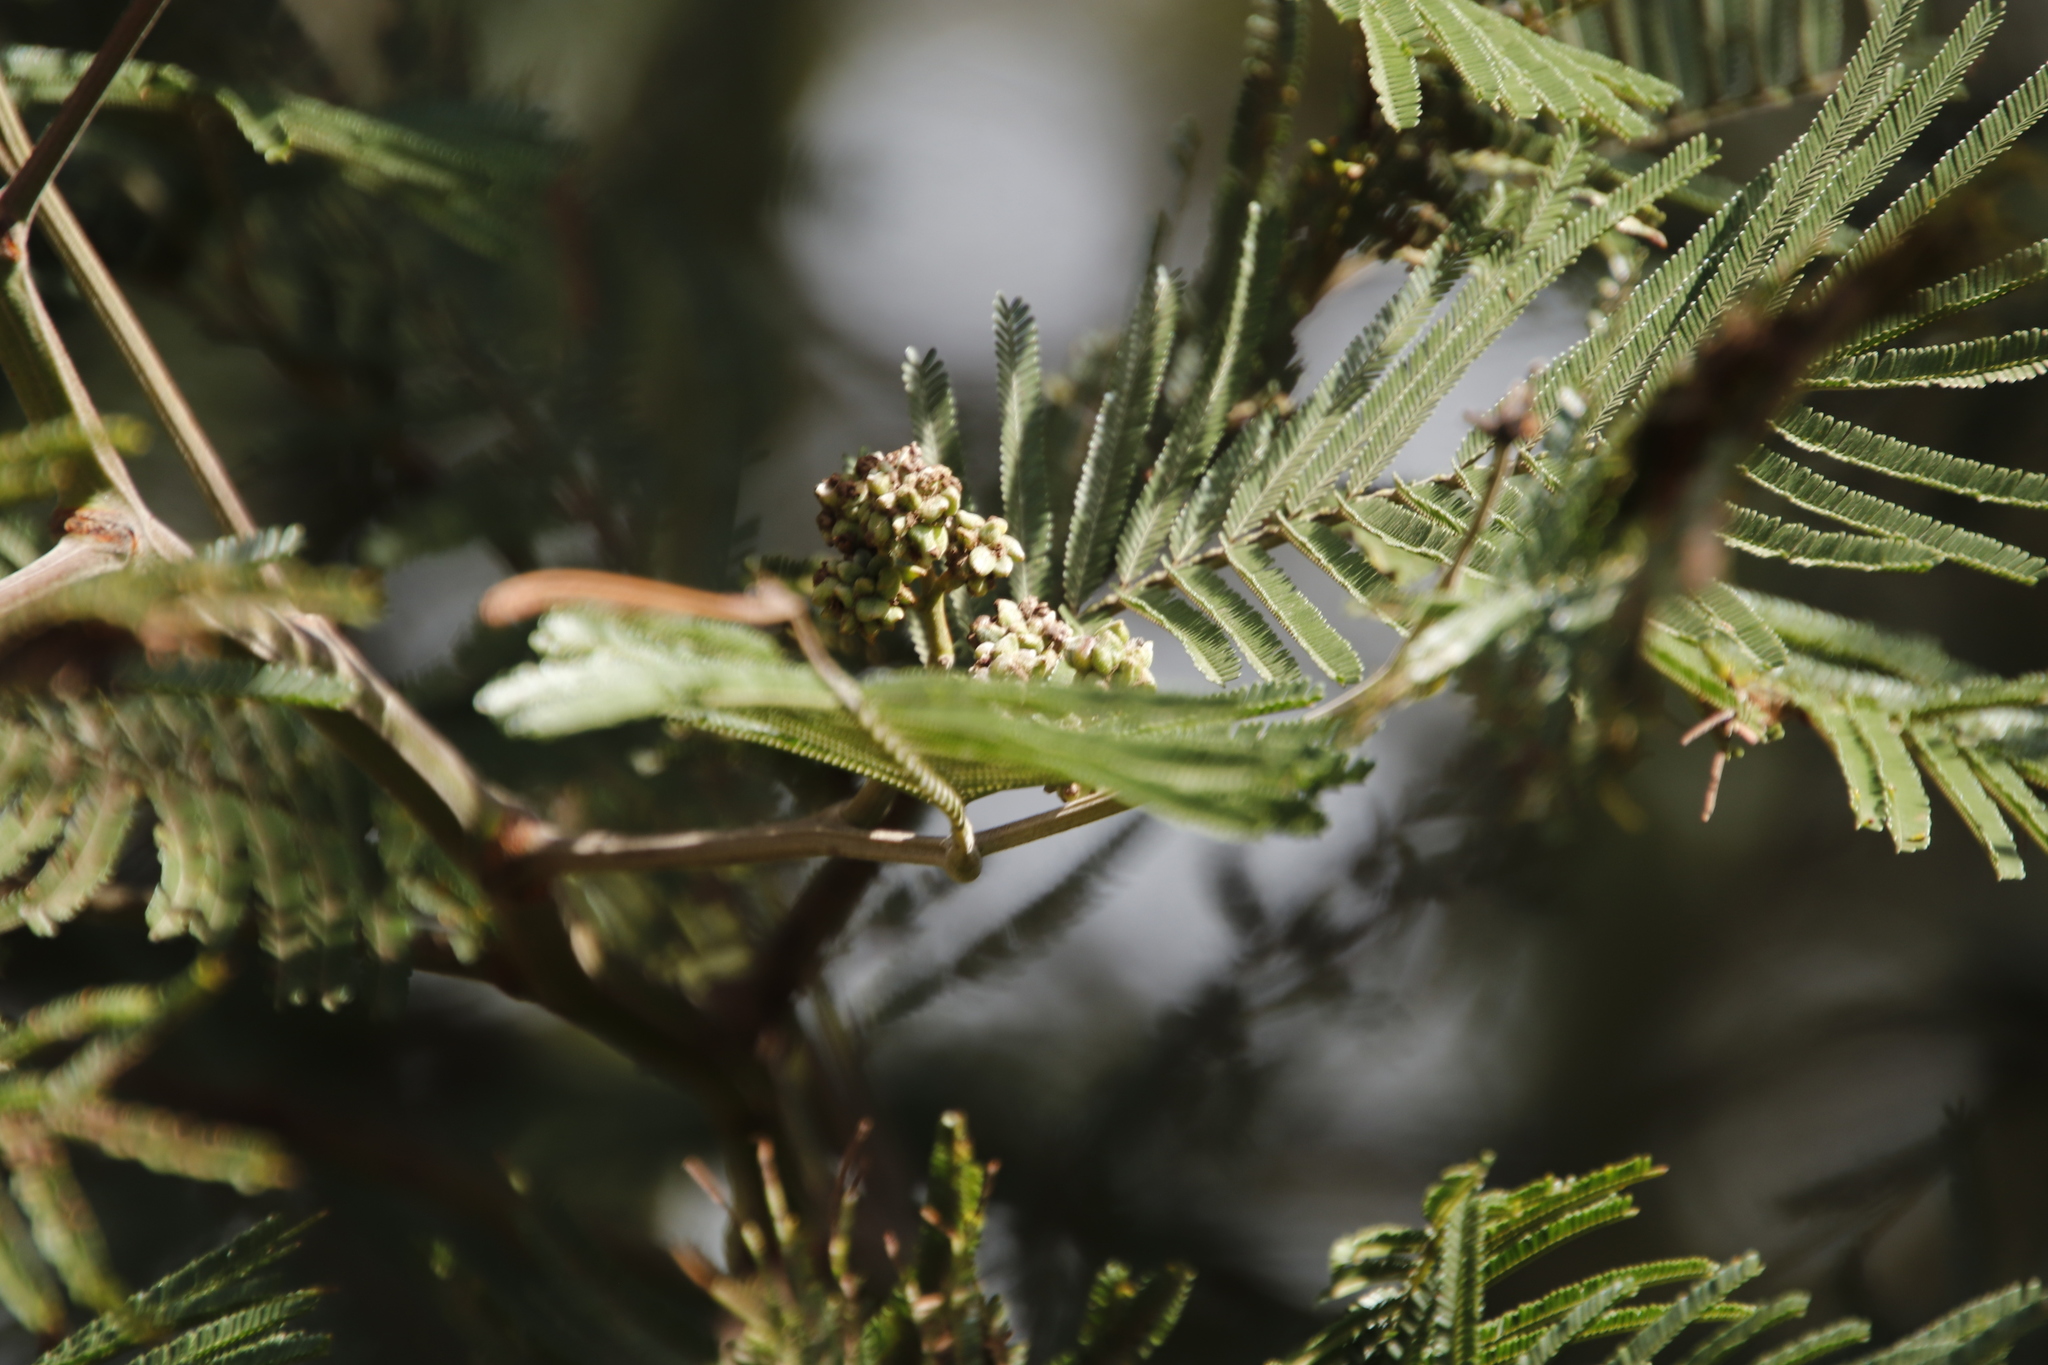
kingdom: Animalia
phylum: Arthropoda
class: Insecta
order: Diptera
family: Cecidomyiidae
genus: Dasineura
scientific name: Dasineura rubiformis
